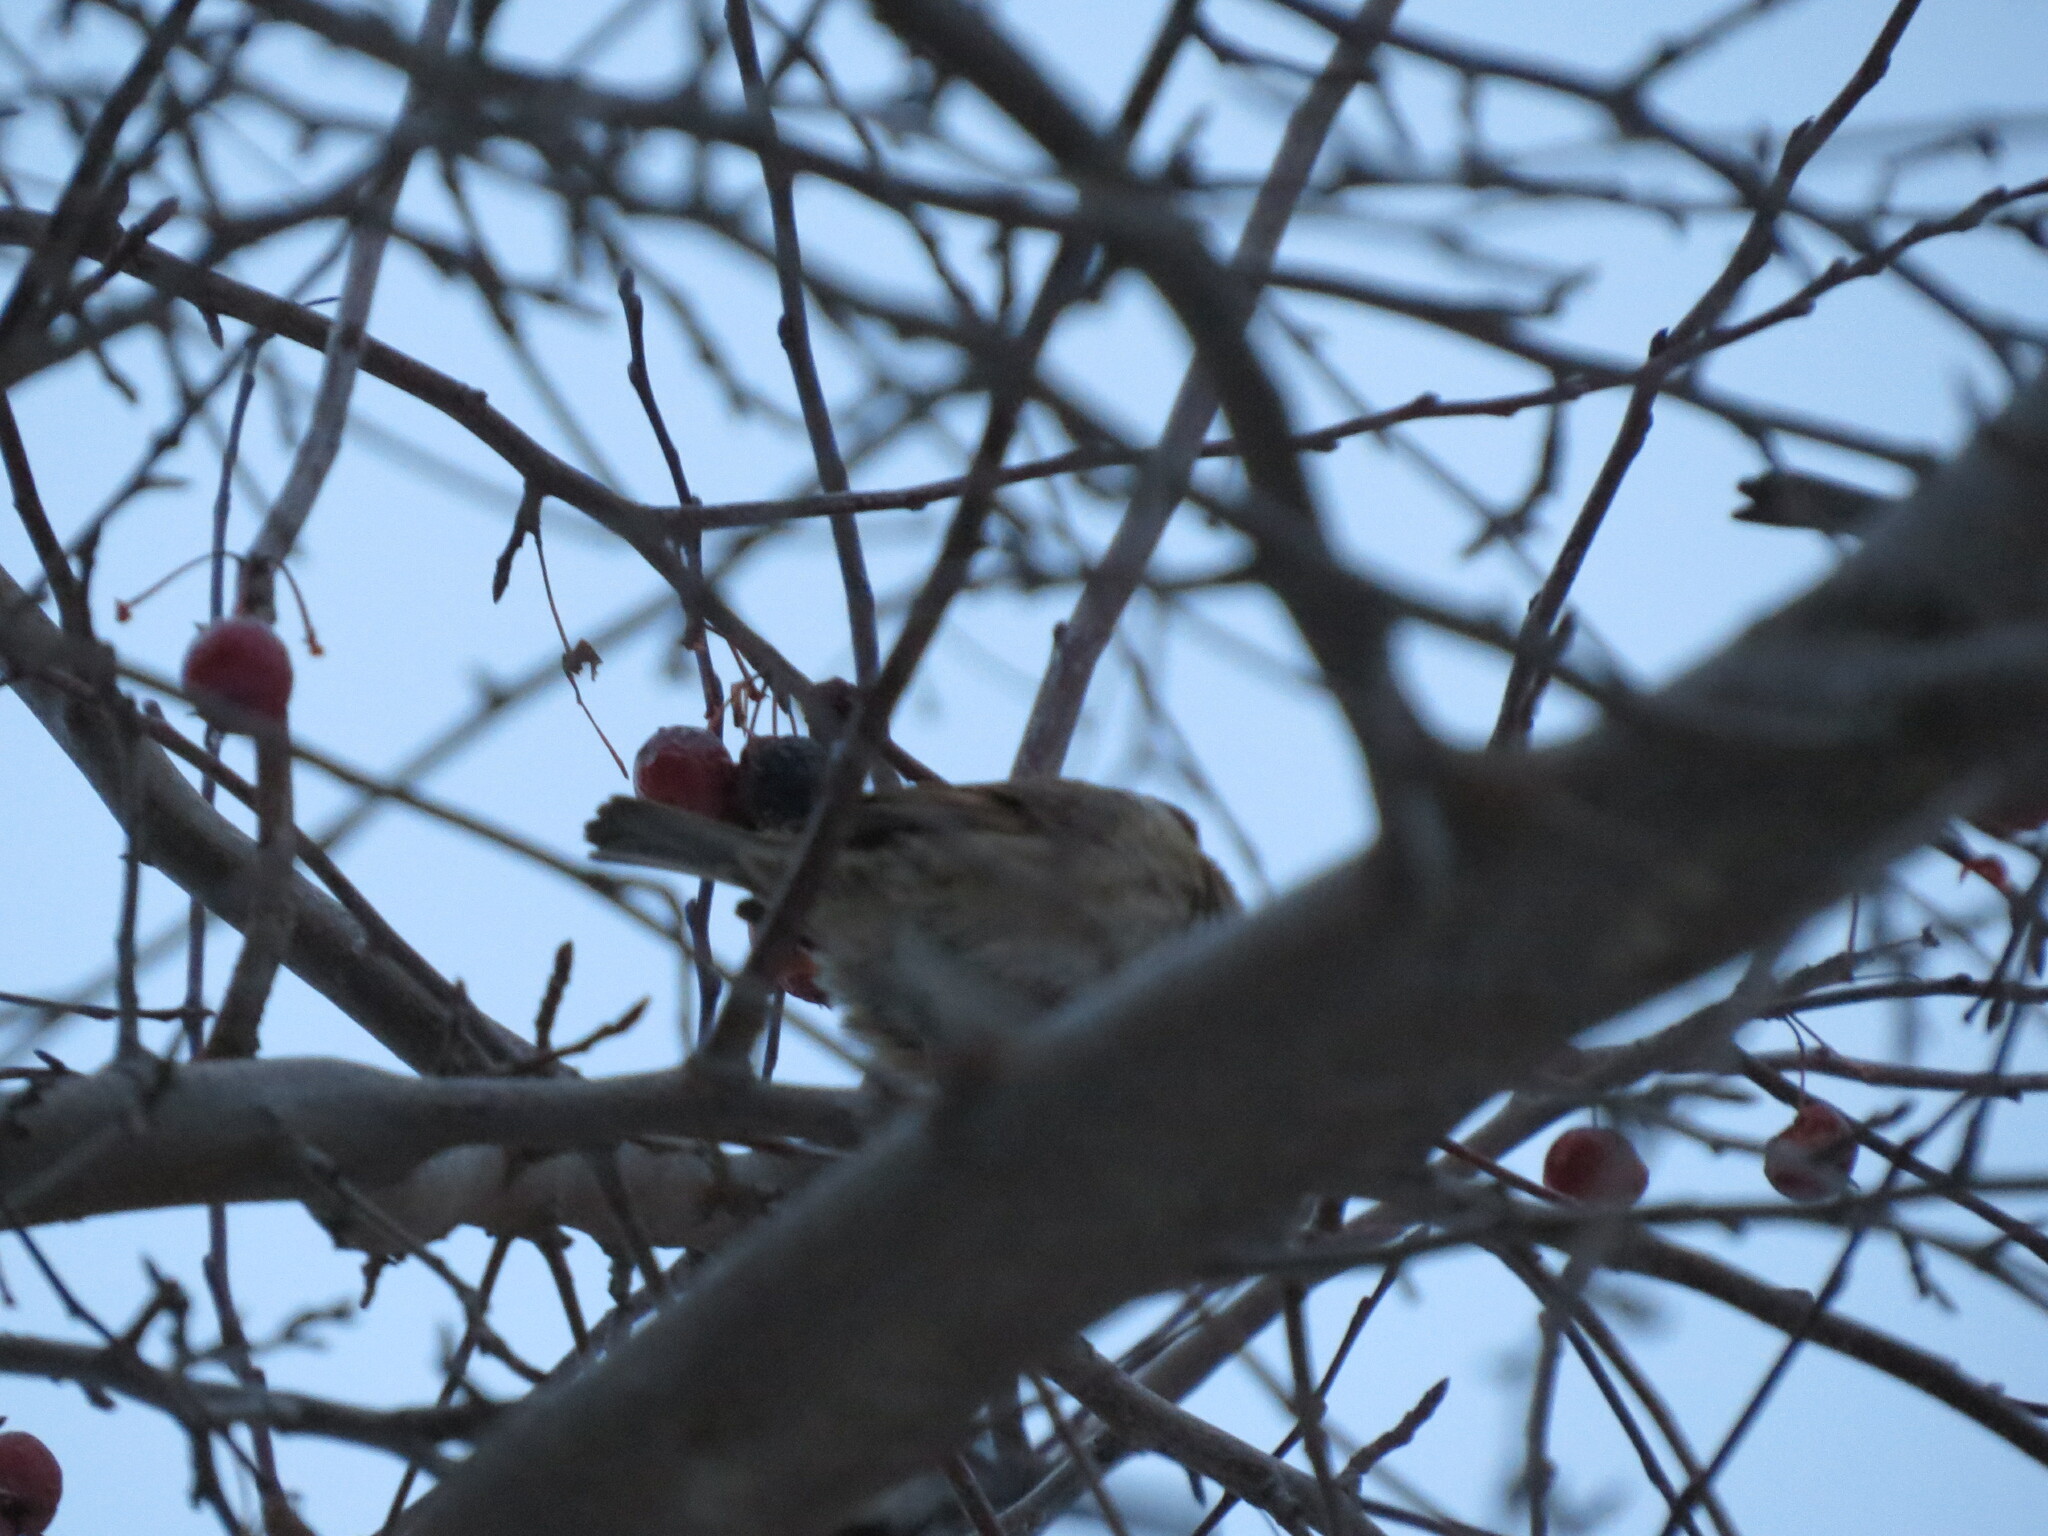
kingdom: Animalia
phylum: Chordata
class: Aves
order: Passeriformes
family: Passeridae
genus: Passer
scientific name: Passer montanus
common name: Eurasian tree sparrow
